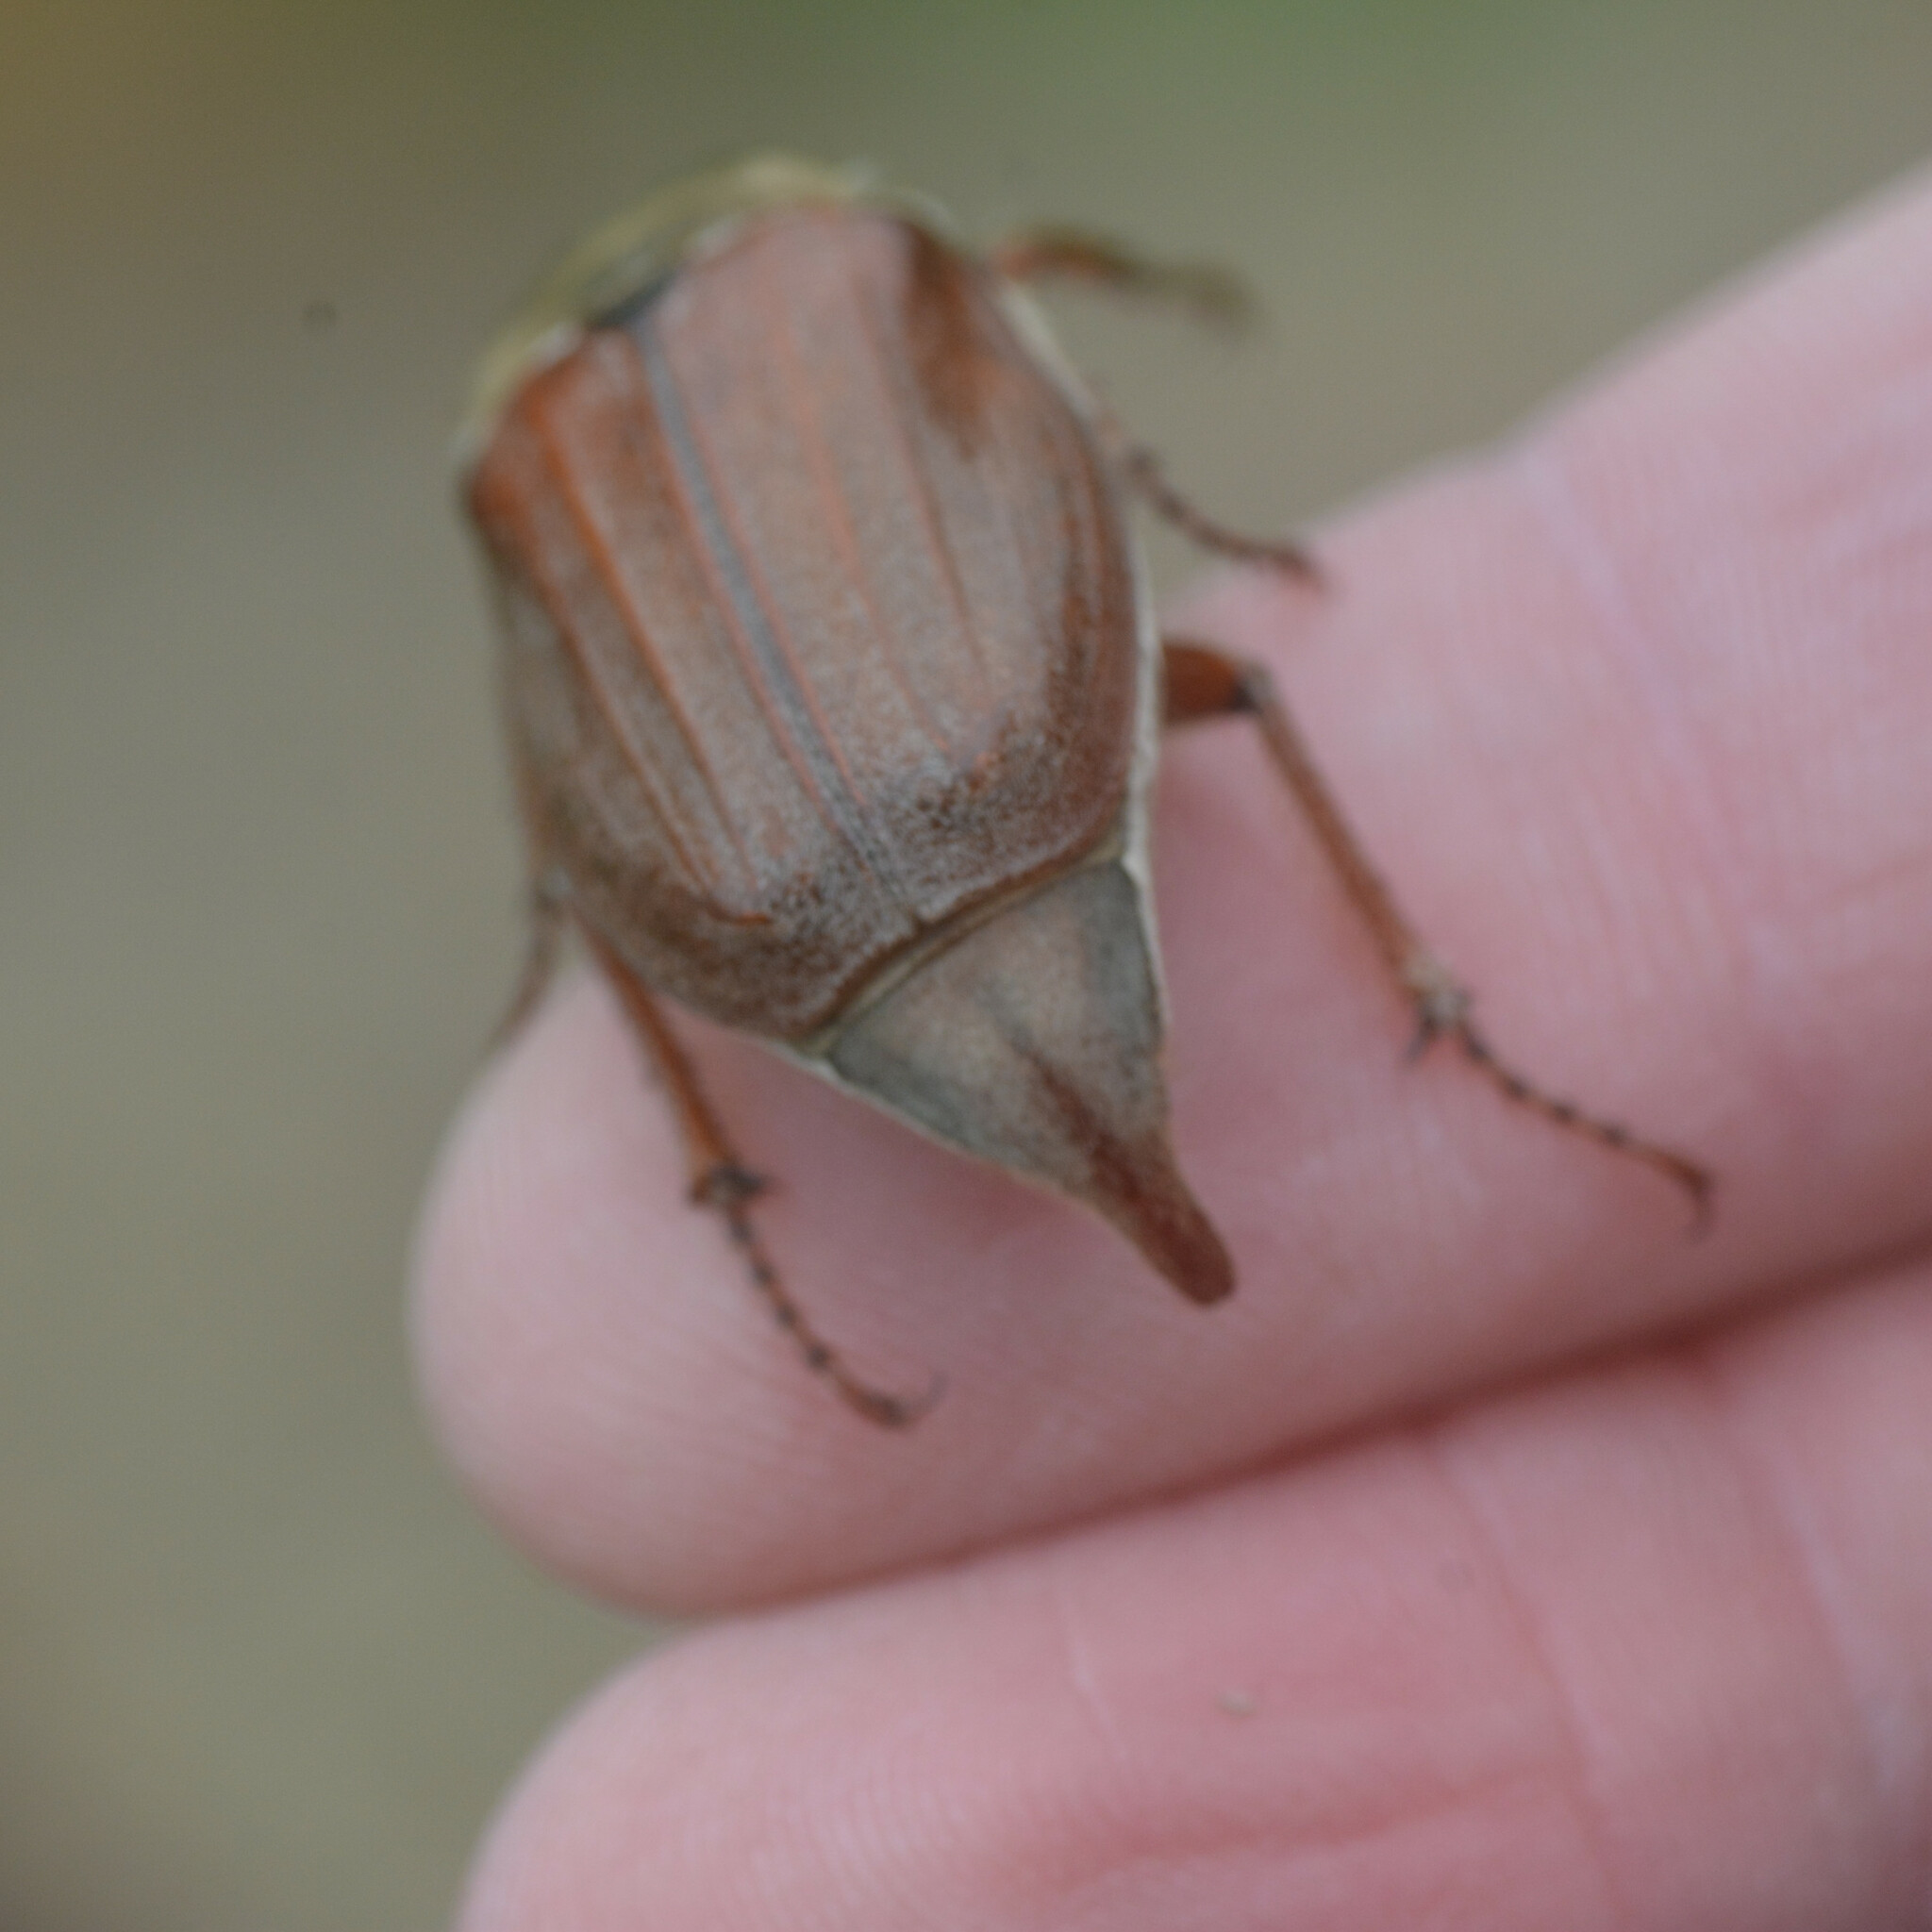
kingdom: Animalia
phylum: Arthropoda
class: Insecta
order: Coleoptera
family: Scarabaeidae
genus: Melolontha
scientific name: Melolontha melolontha
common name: Cockchafer maybeetle
